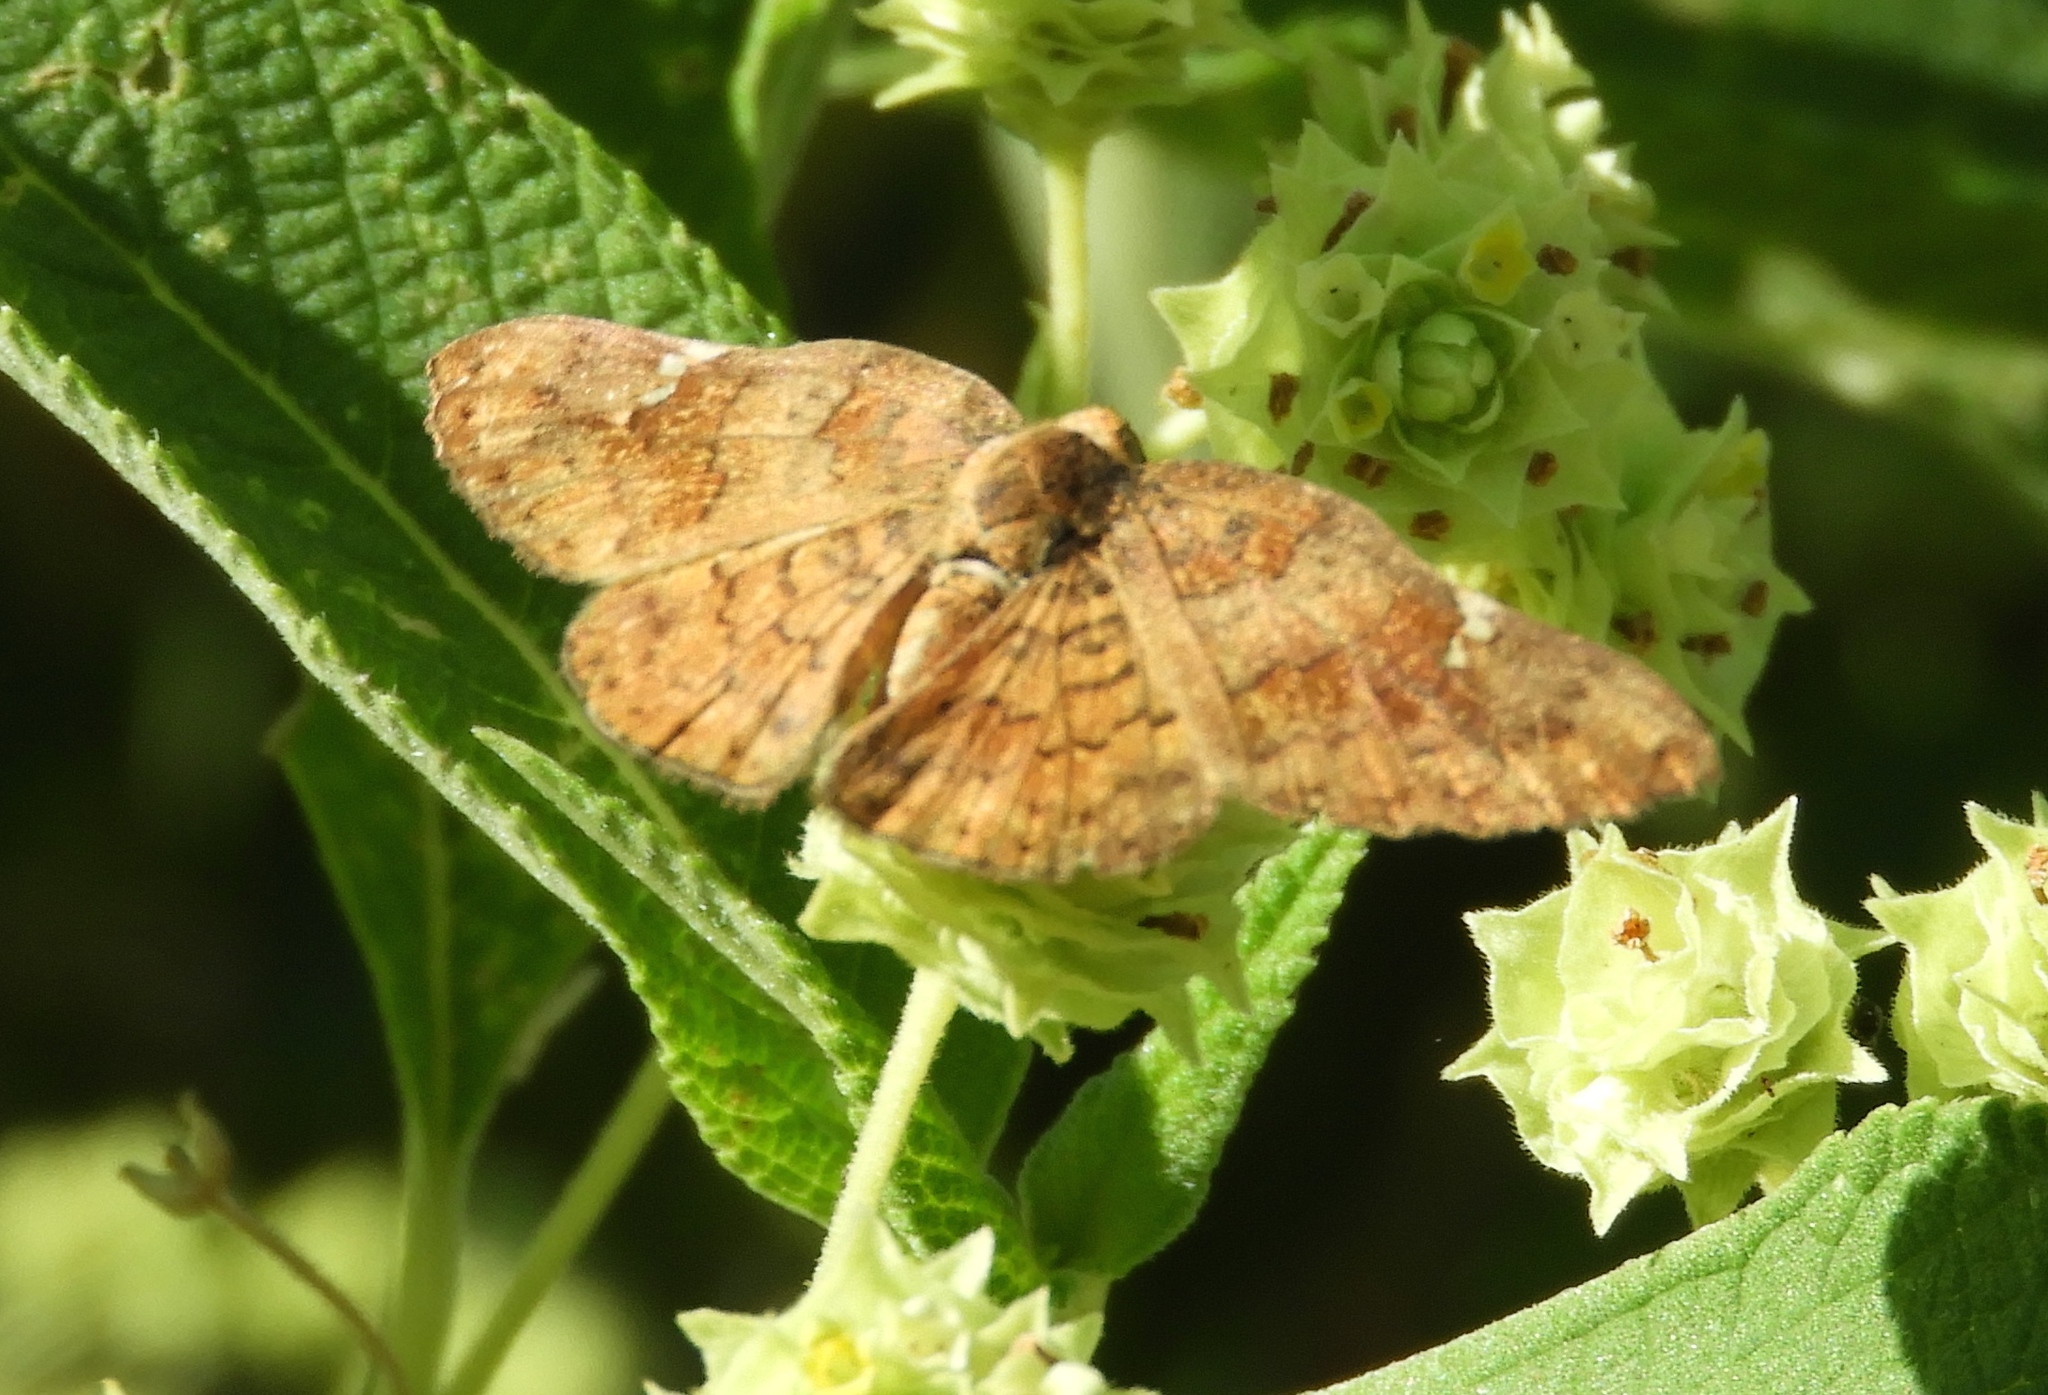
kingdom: Animalia
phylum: Arthropoda
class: Insecta
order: Lepidoptera
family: Riodinidae
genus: Curvie
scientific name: Curvie emesia
